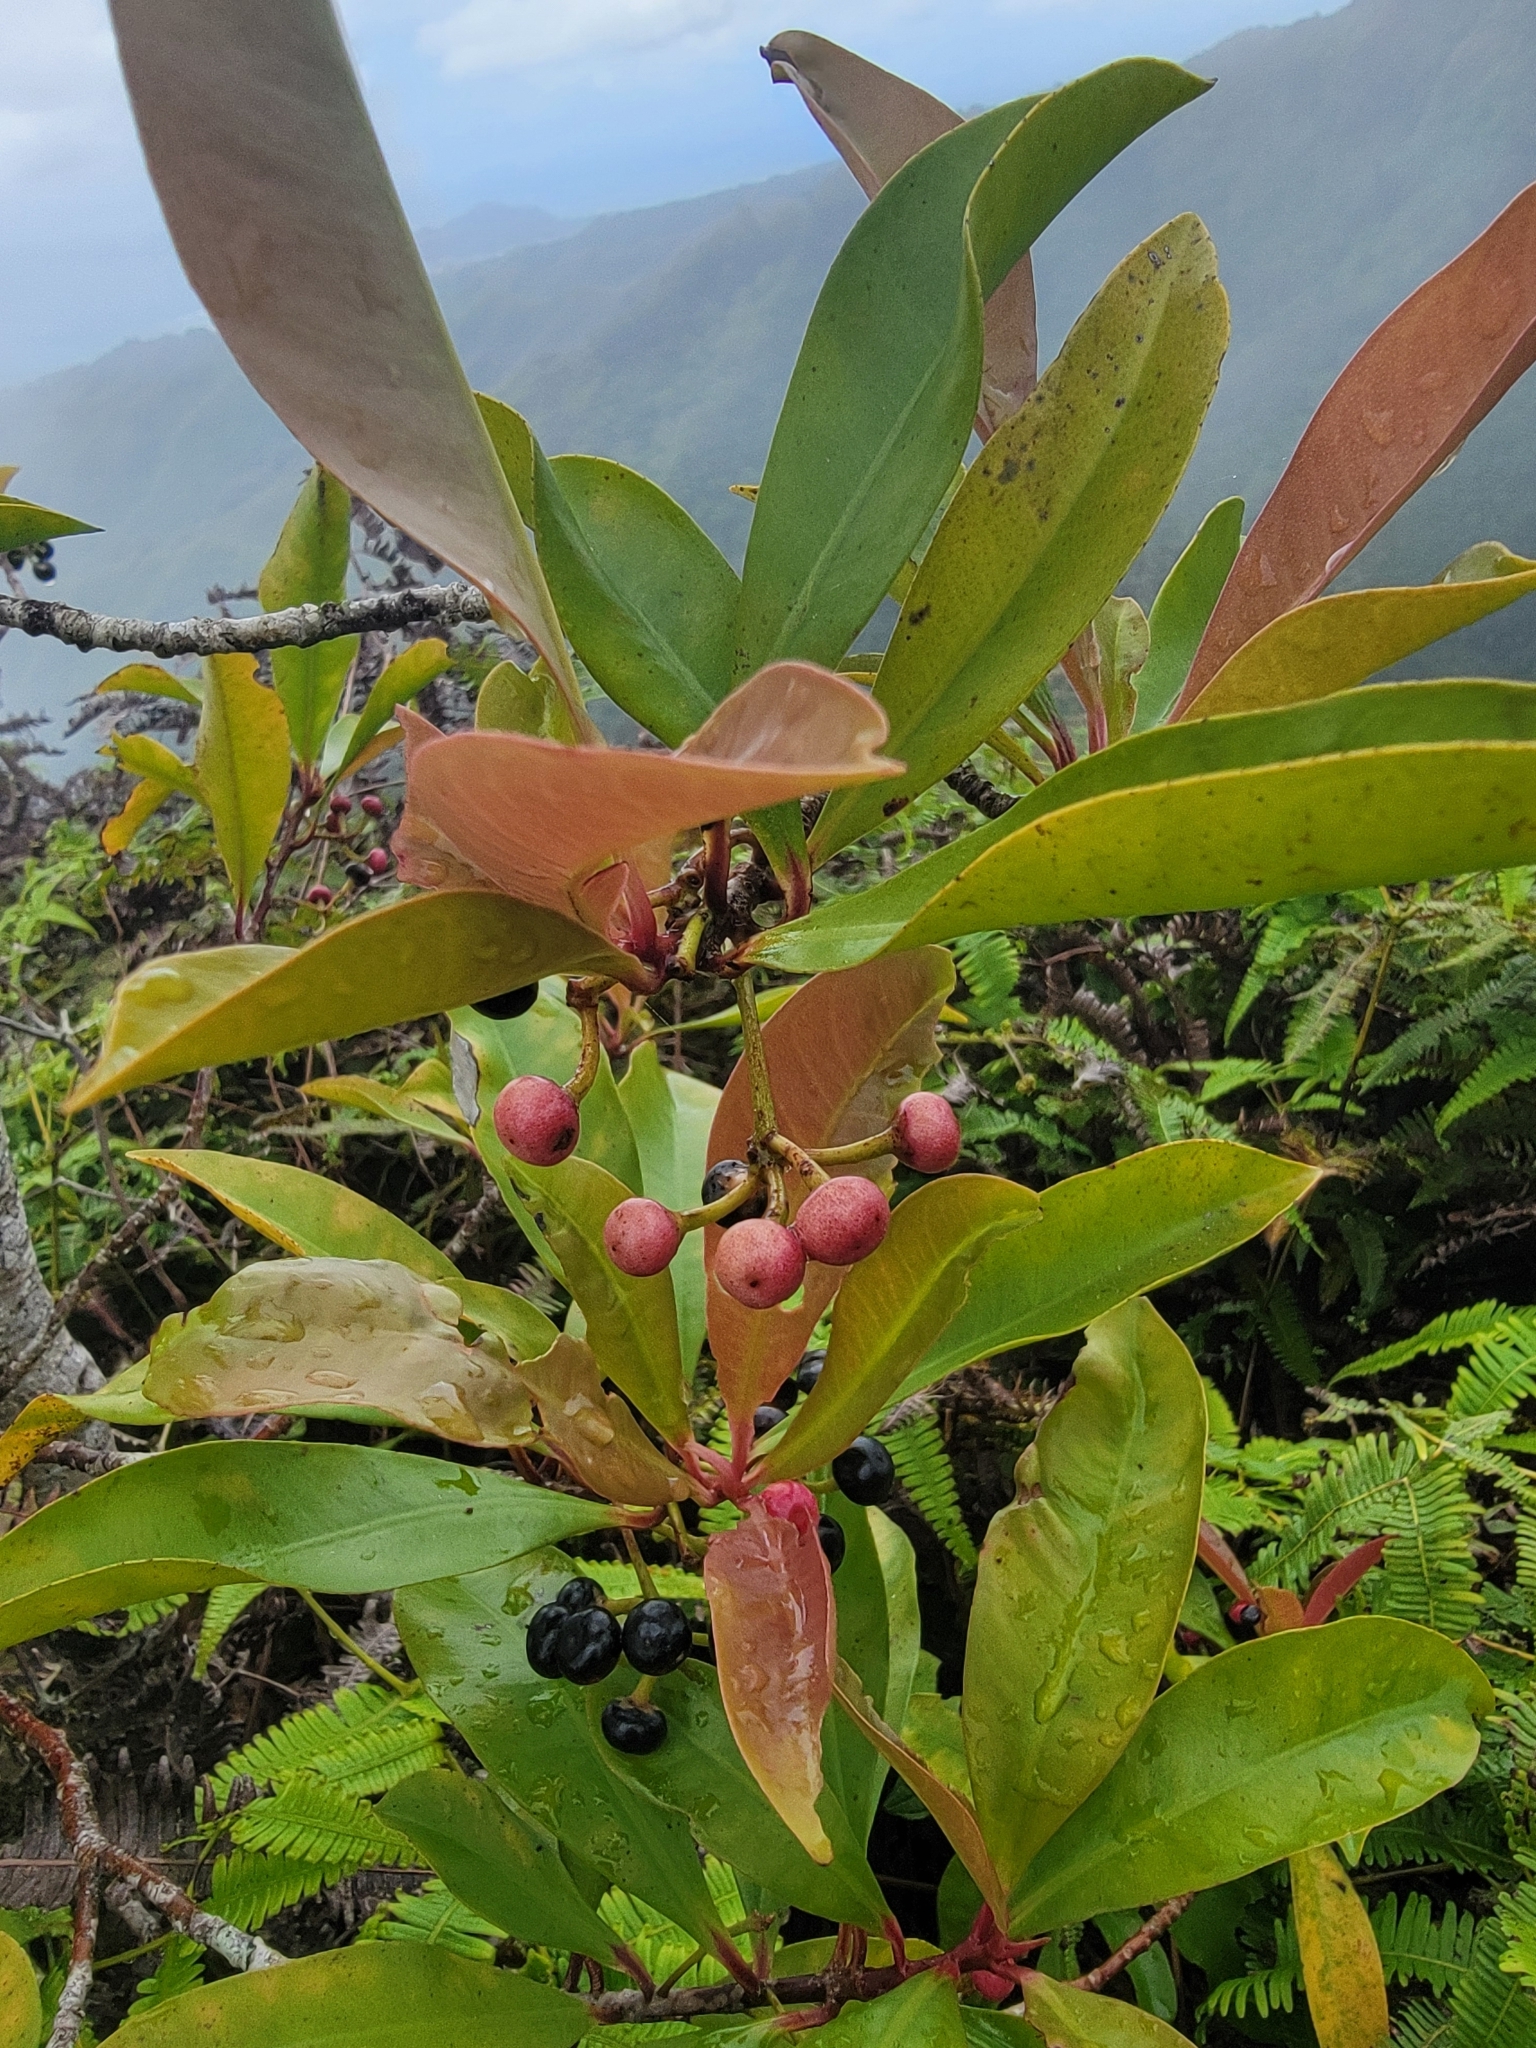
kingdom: Plantae
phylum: Tracheophyta
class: Magnoliopsida
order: Ericales
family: Primulaceae
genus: Ardisia
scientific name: Ardisia elliptica
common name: Shoebutton
